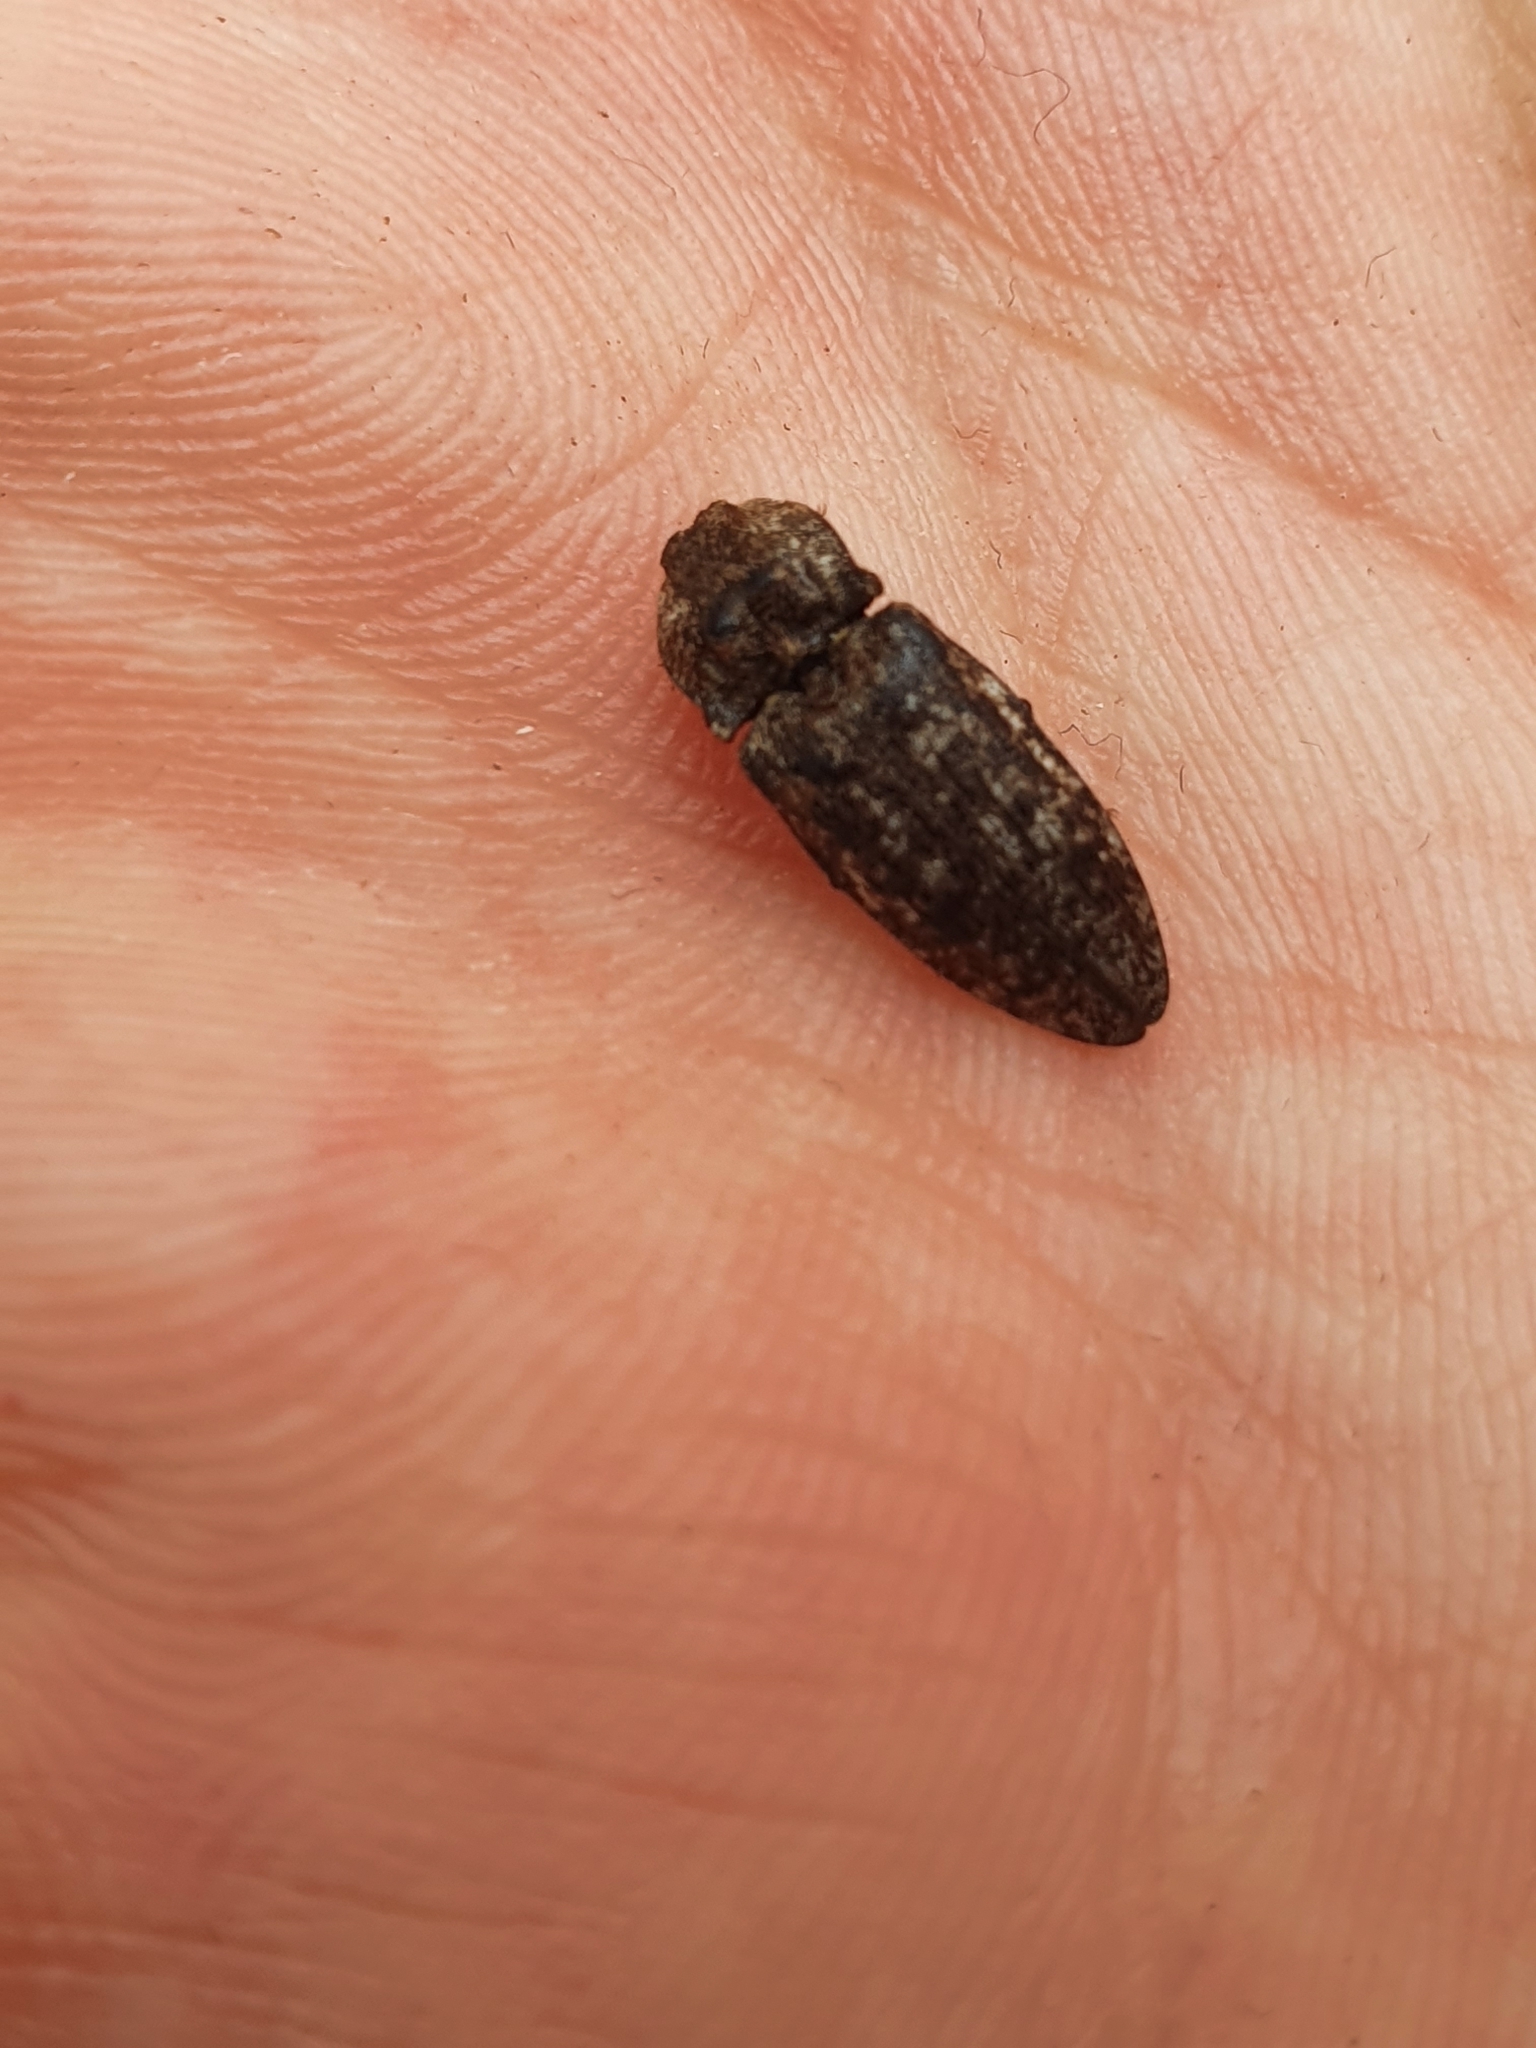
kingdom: Animalia
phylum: Arthropoda
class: Insecta
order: Coleoptera
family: Elateridae
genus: Agrypnus
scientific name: Agrypnus murinus
